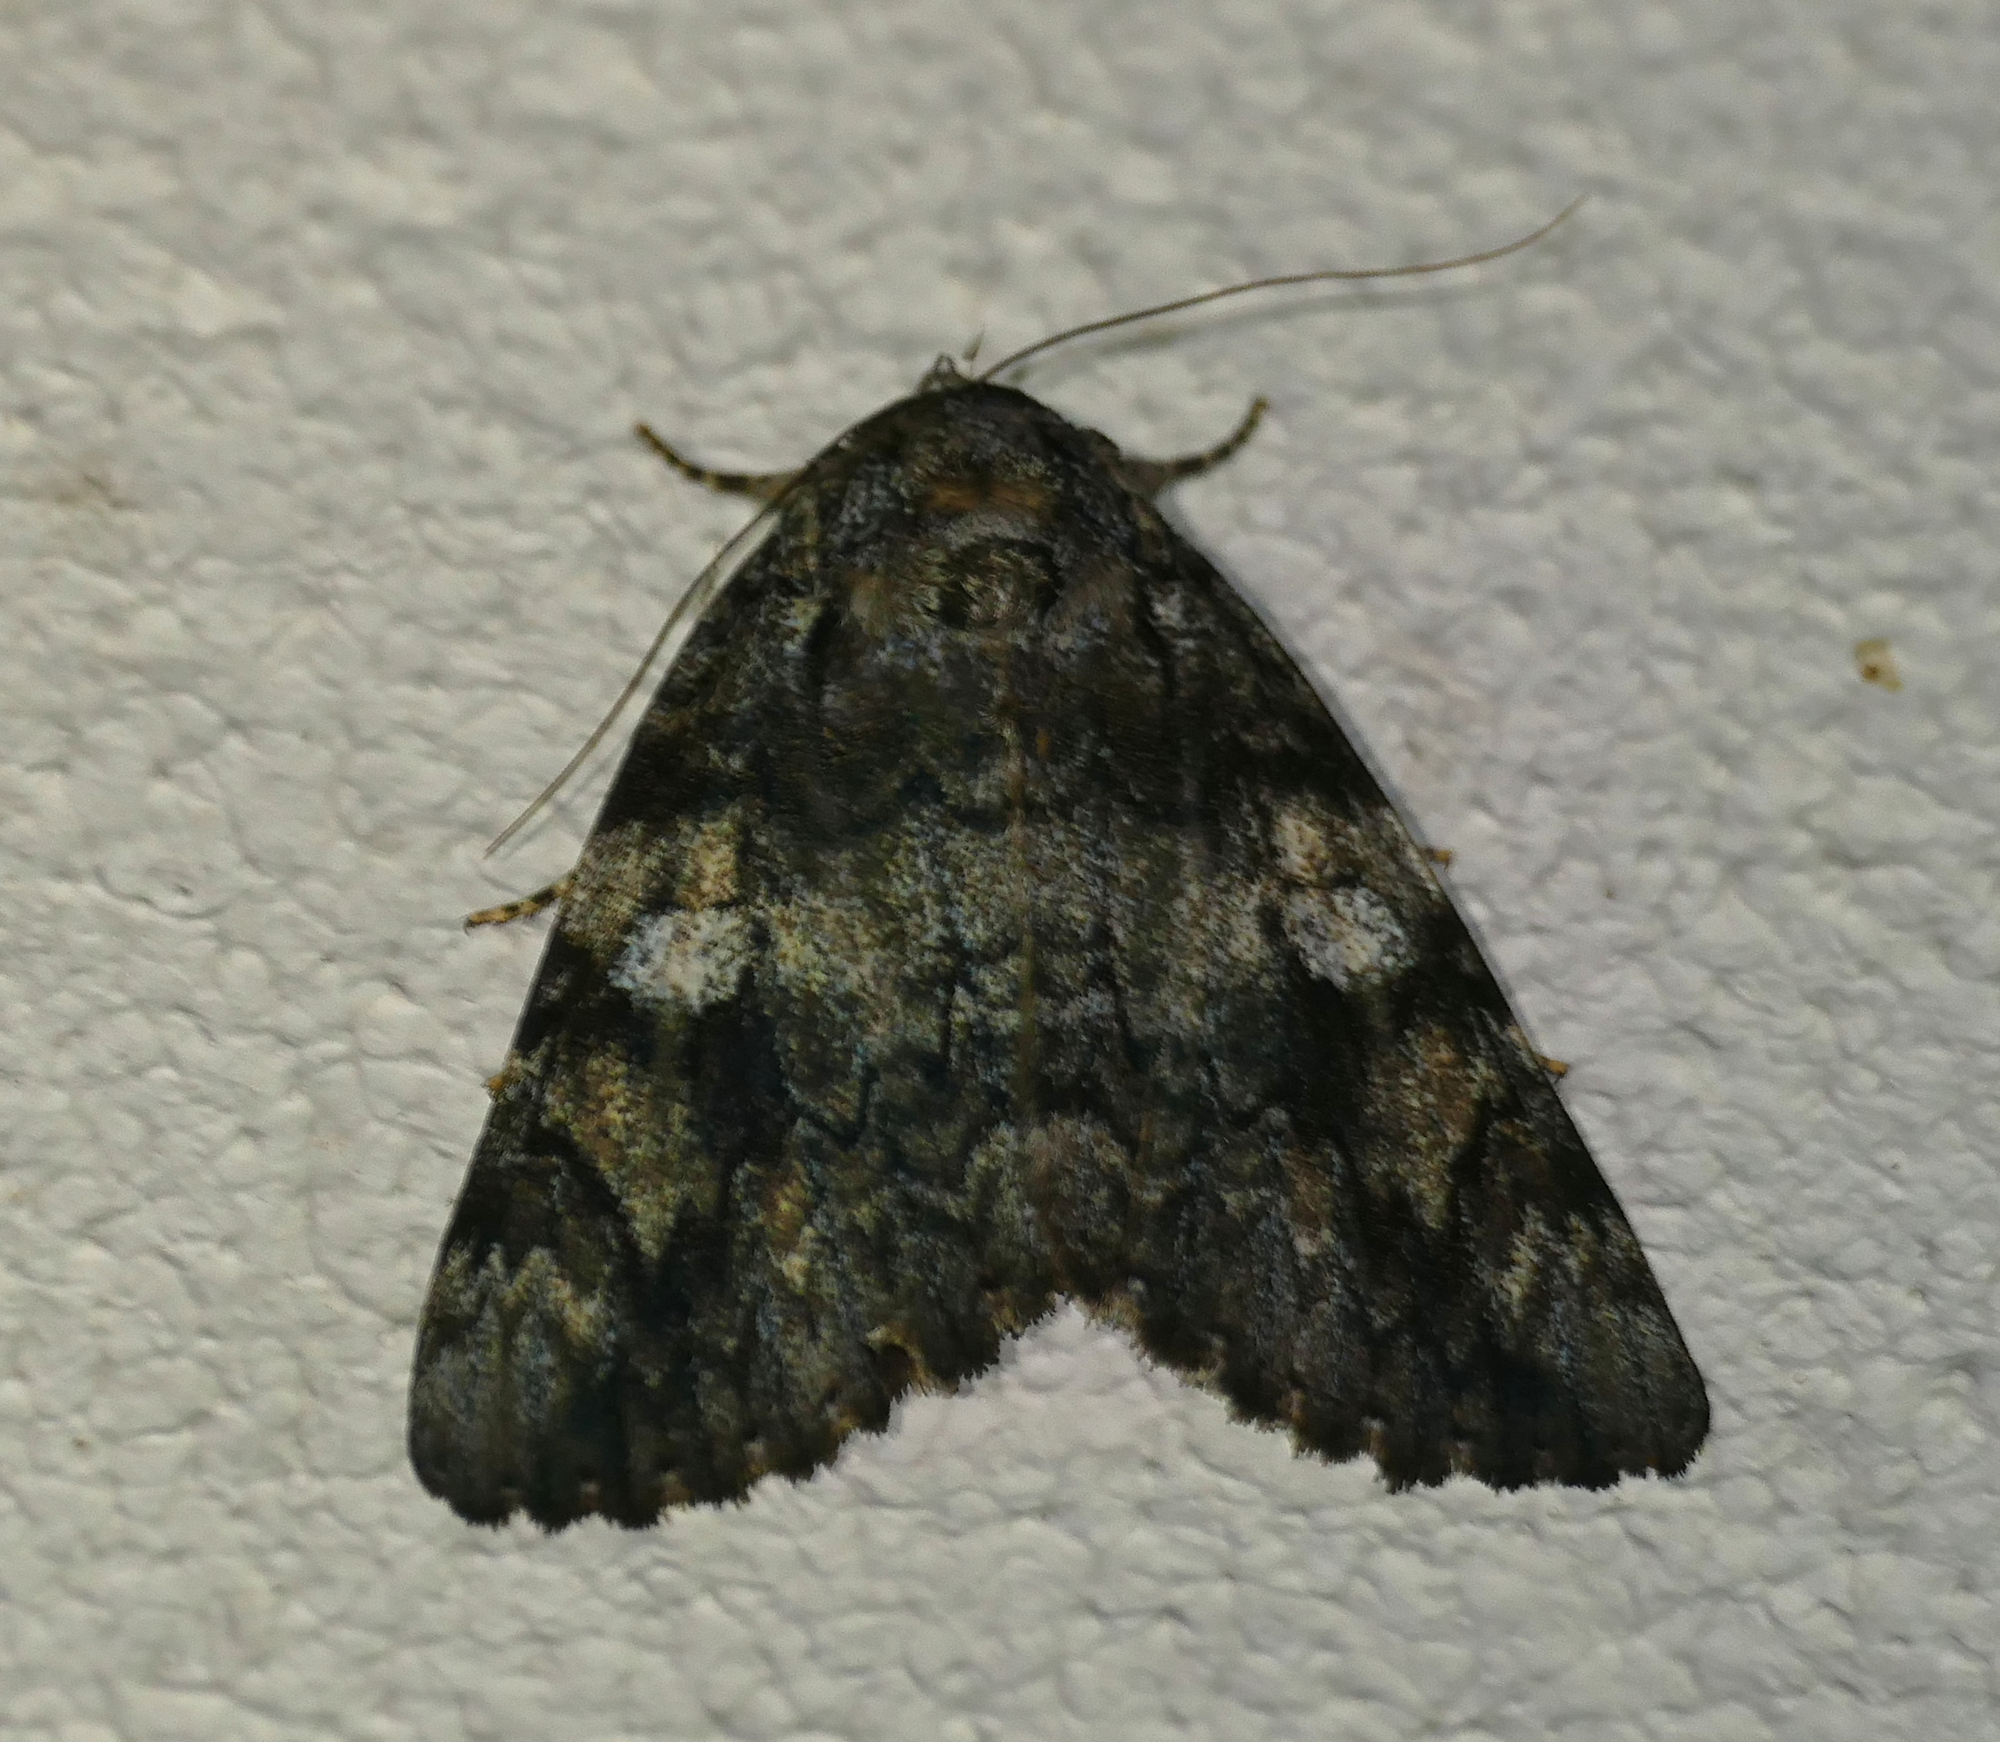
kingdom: Animalia
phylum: Arthropoda
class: Insecta
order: Lepidoptera
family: Erebidae
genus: Catocala
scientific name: Catocala ilia
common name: Ilia underwing
